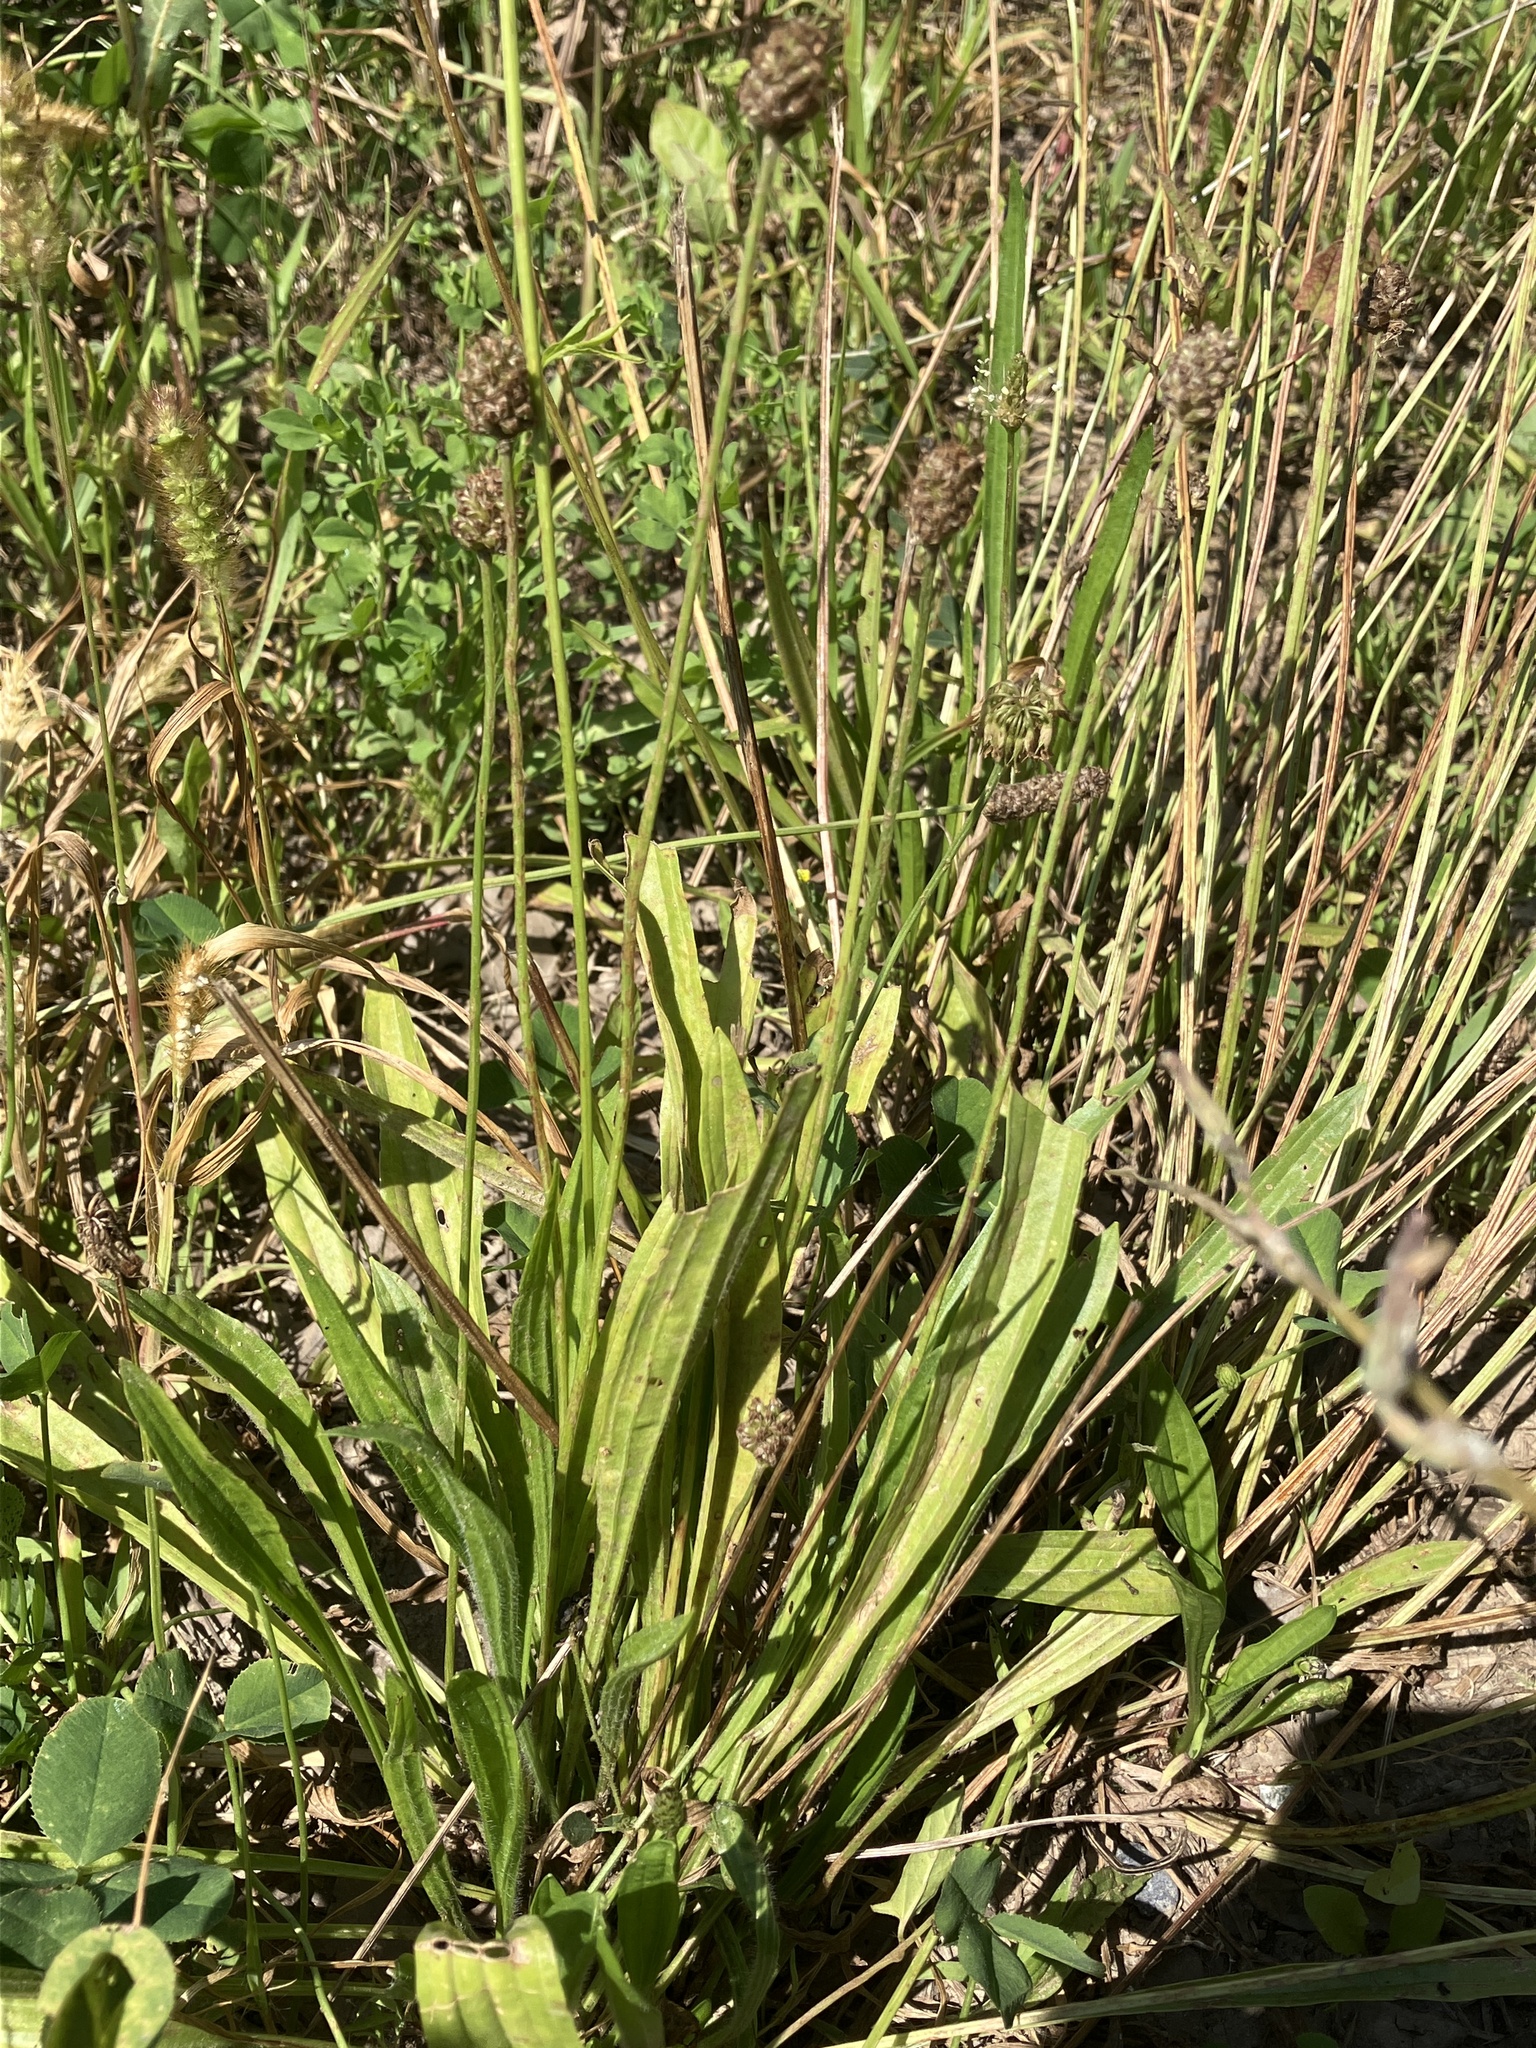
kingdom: Plantae
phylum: Tracheophyta
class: Magnoliopsida
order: Lamiales
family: Plantaginaceae
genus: Plantago
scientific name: Plantago lanceolata
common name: Ribwort plantain
